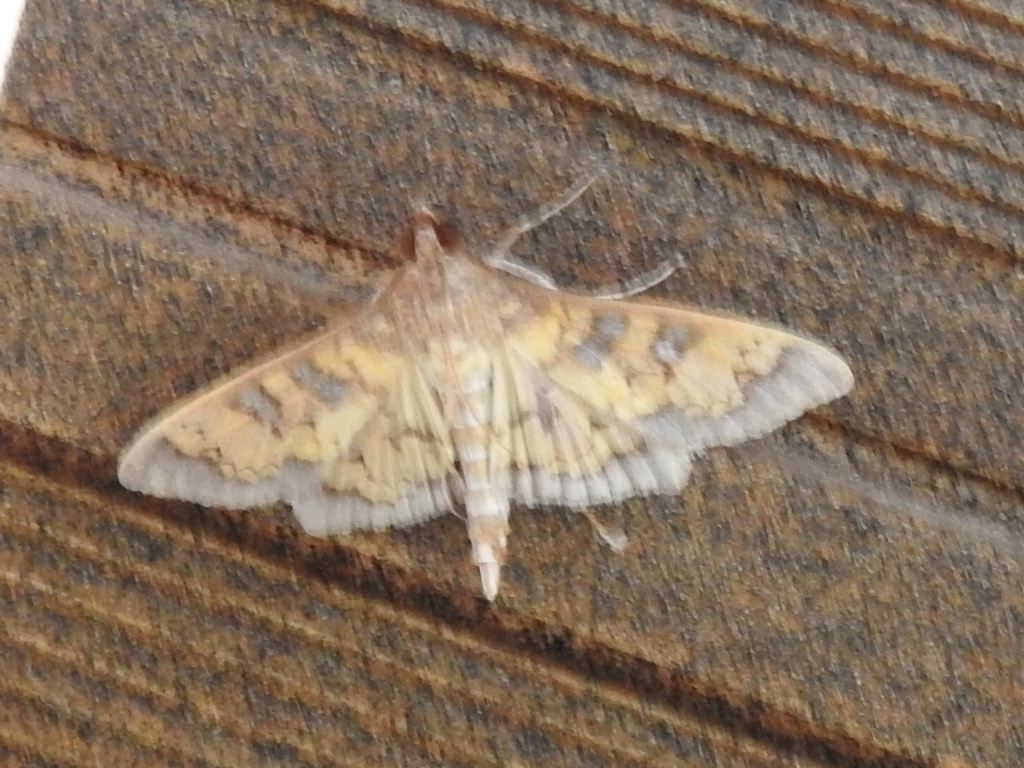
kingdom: Animalia
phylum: Arthropoda
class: Insecta
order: Lepidoptera
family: Crambidae
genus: Cryptographis
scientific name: Cryptographis elealis
